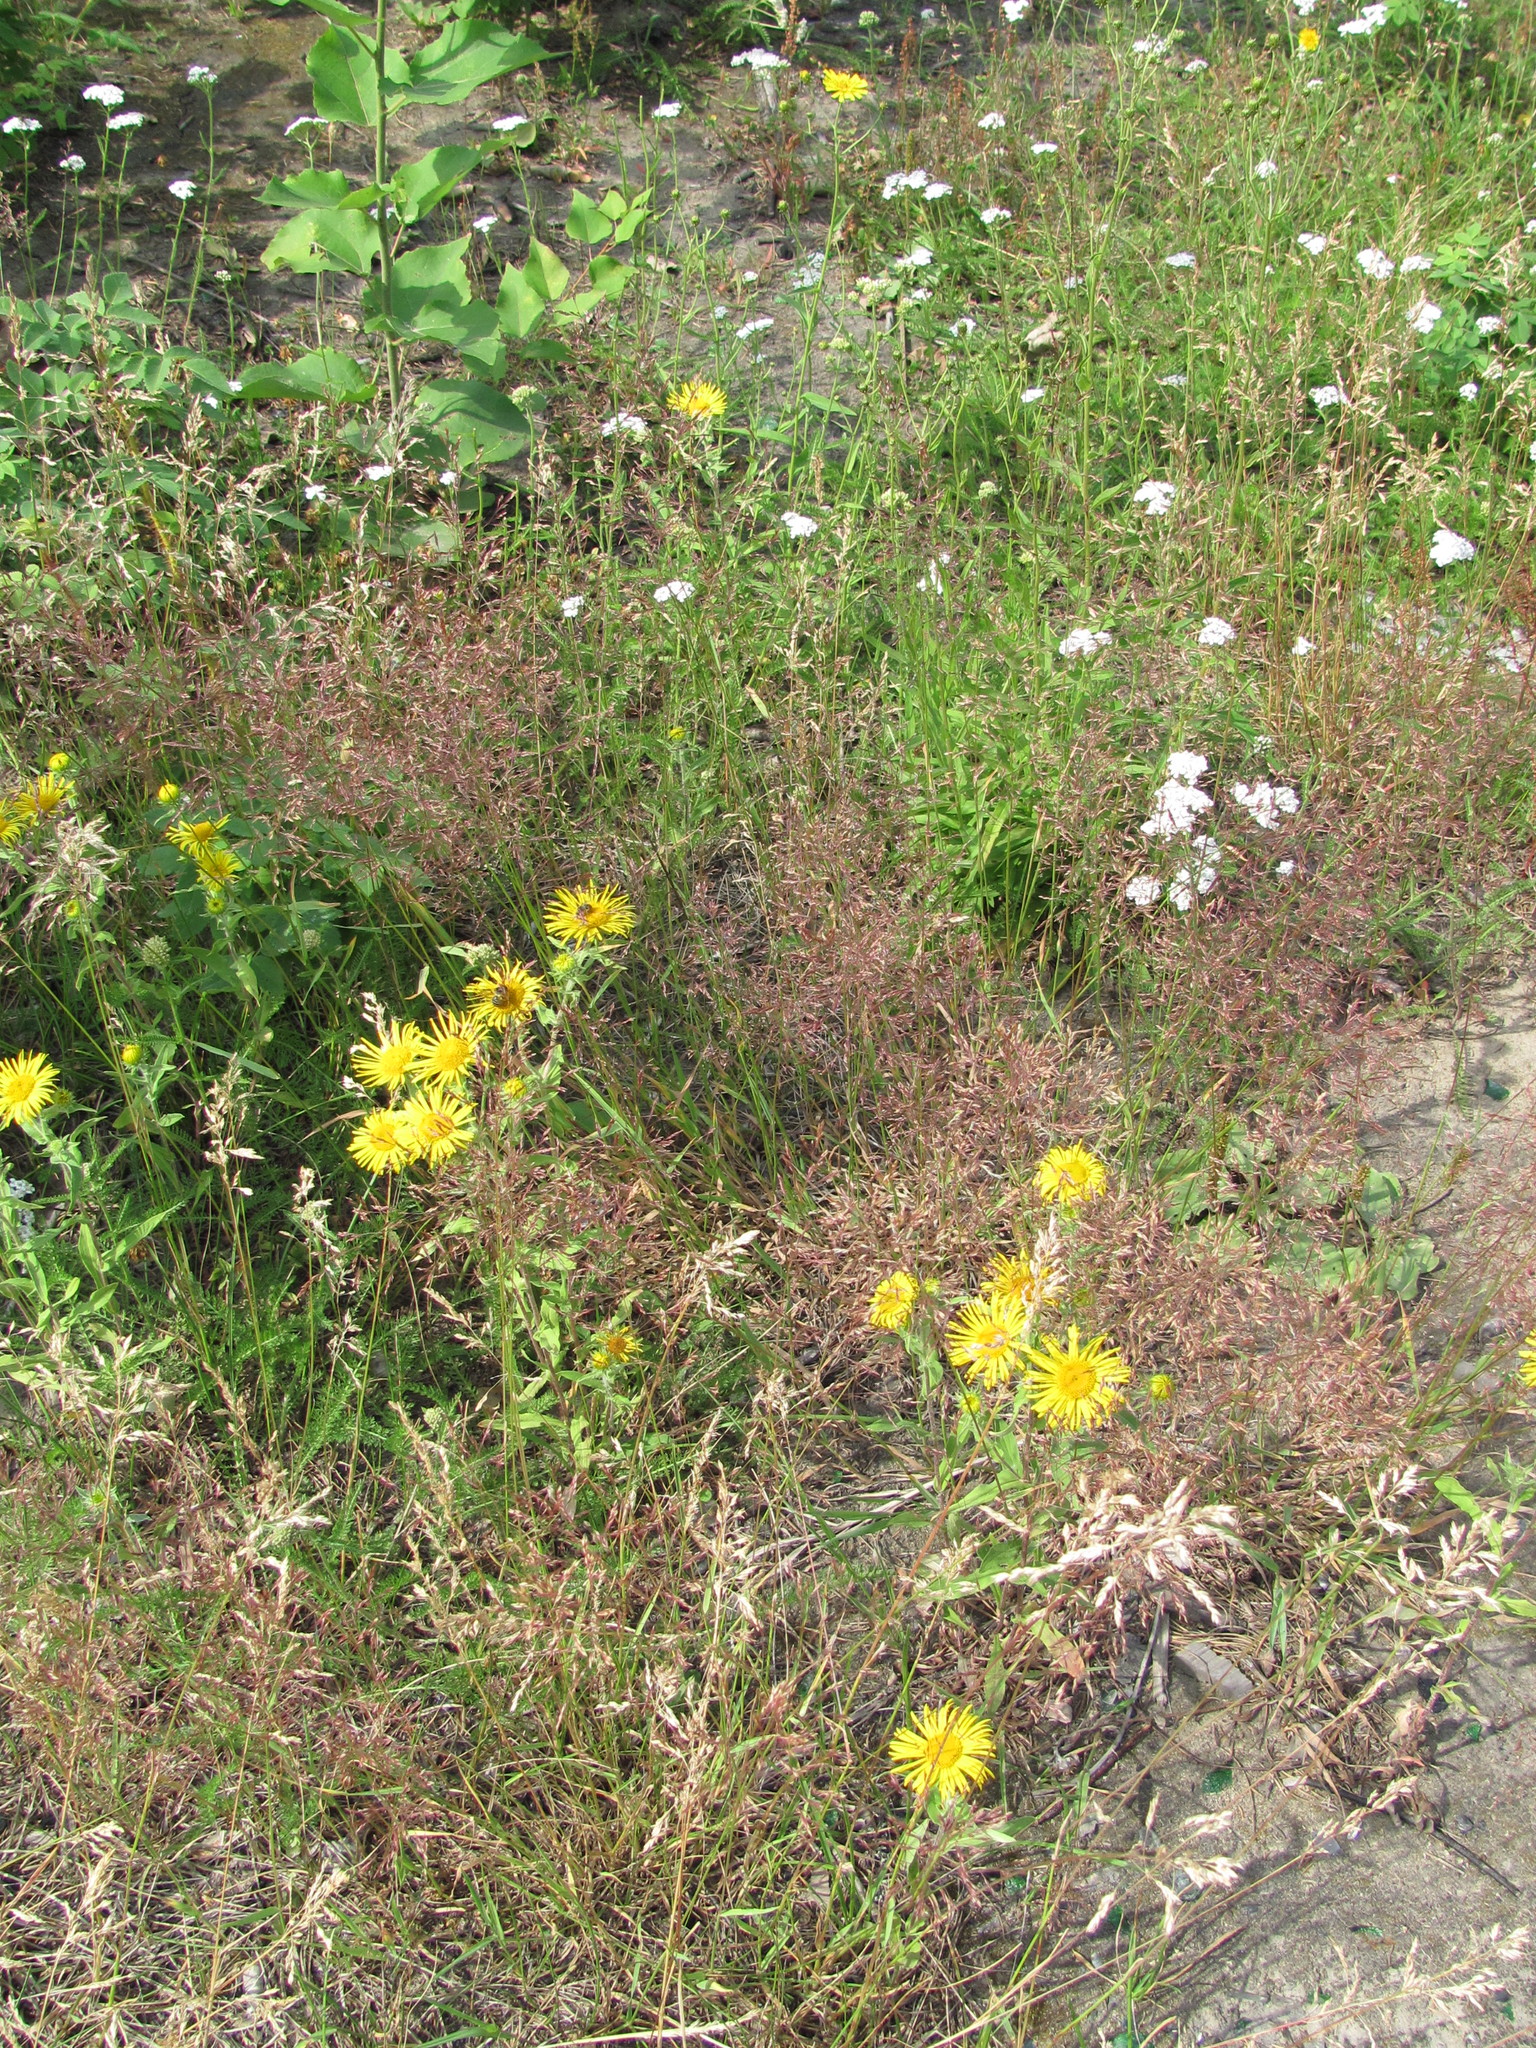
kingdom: Plantae
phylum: Tracheophyta
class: Magnoliopsida
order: Asterales
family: Asteraceae
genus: Pentanema
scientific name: Pentanema britannicum
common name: British elecampane
